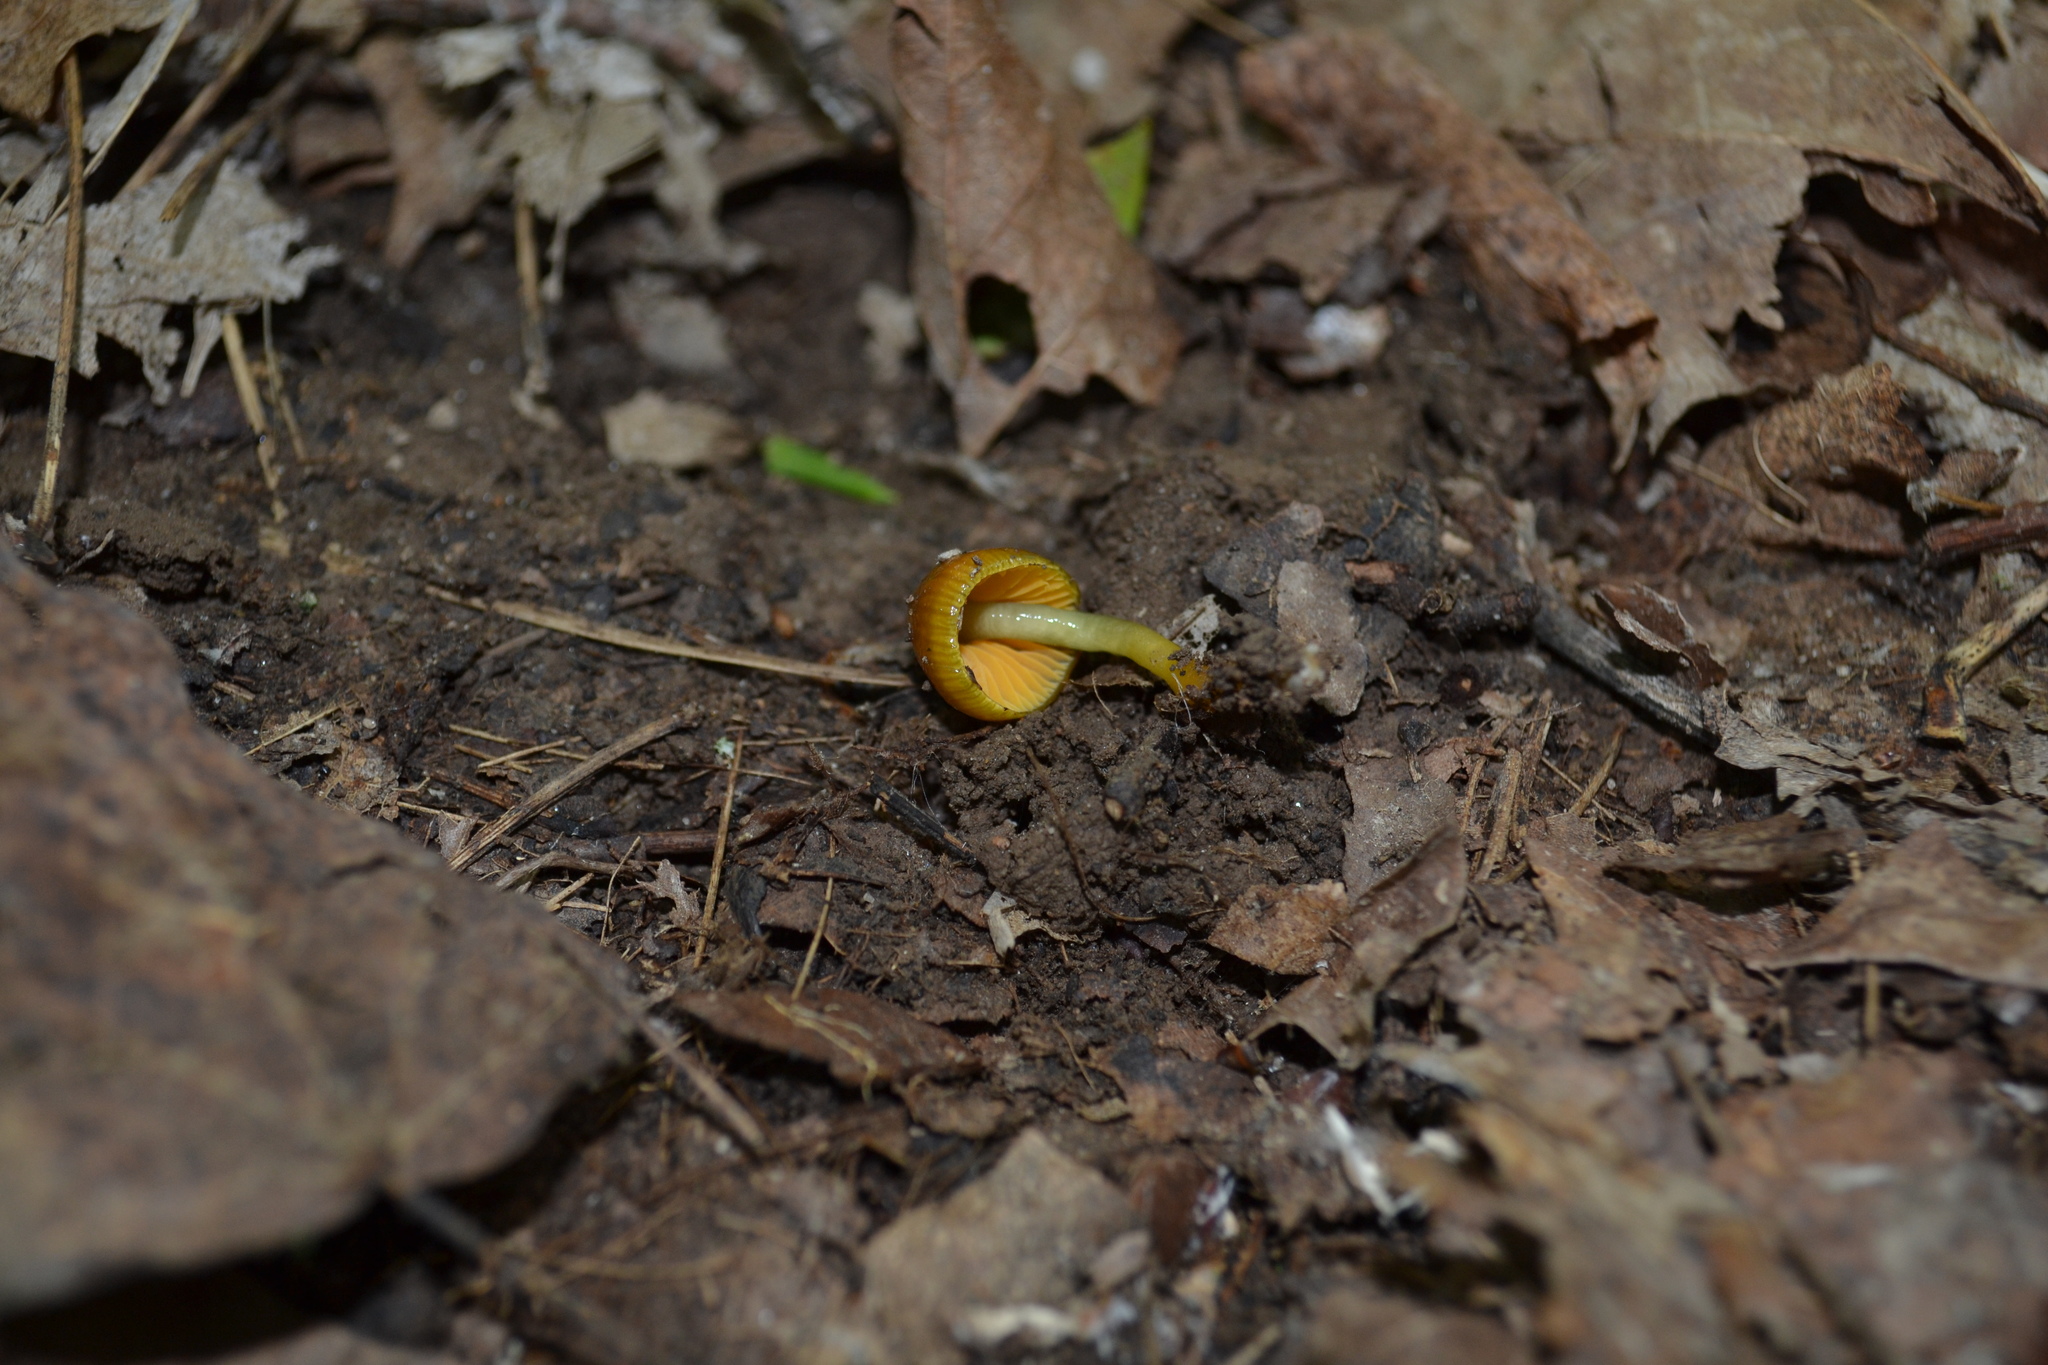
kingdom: Fungi
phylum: Basidiomycota
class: Agaricomycetes
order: Agaricales
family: Hygrophoraceae
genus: Gliophorus
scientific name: Gliophorus psittacinus
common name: Parrot wax-cap
